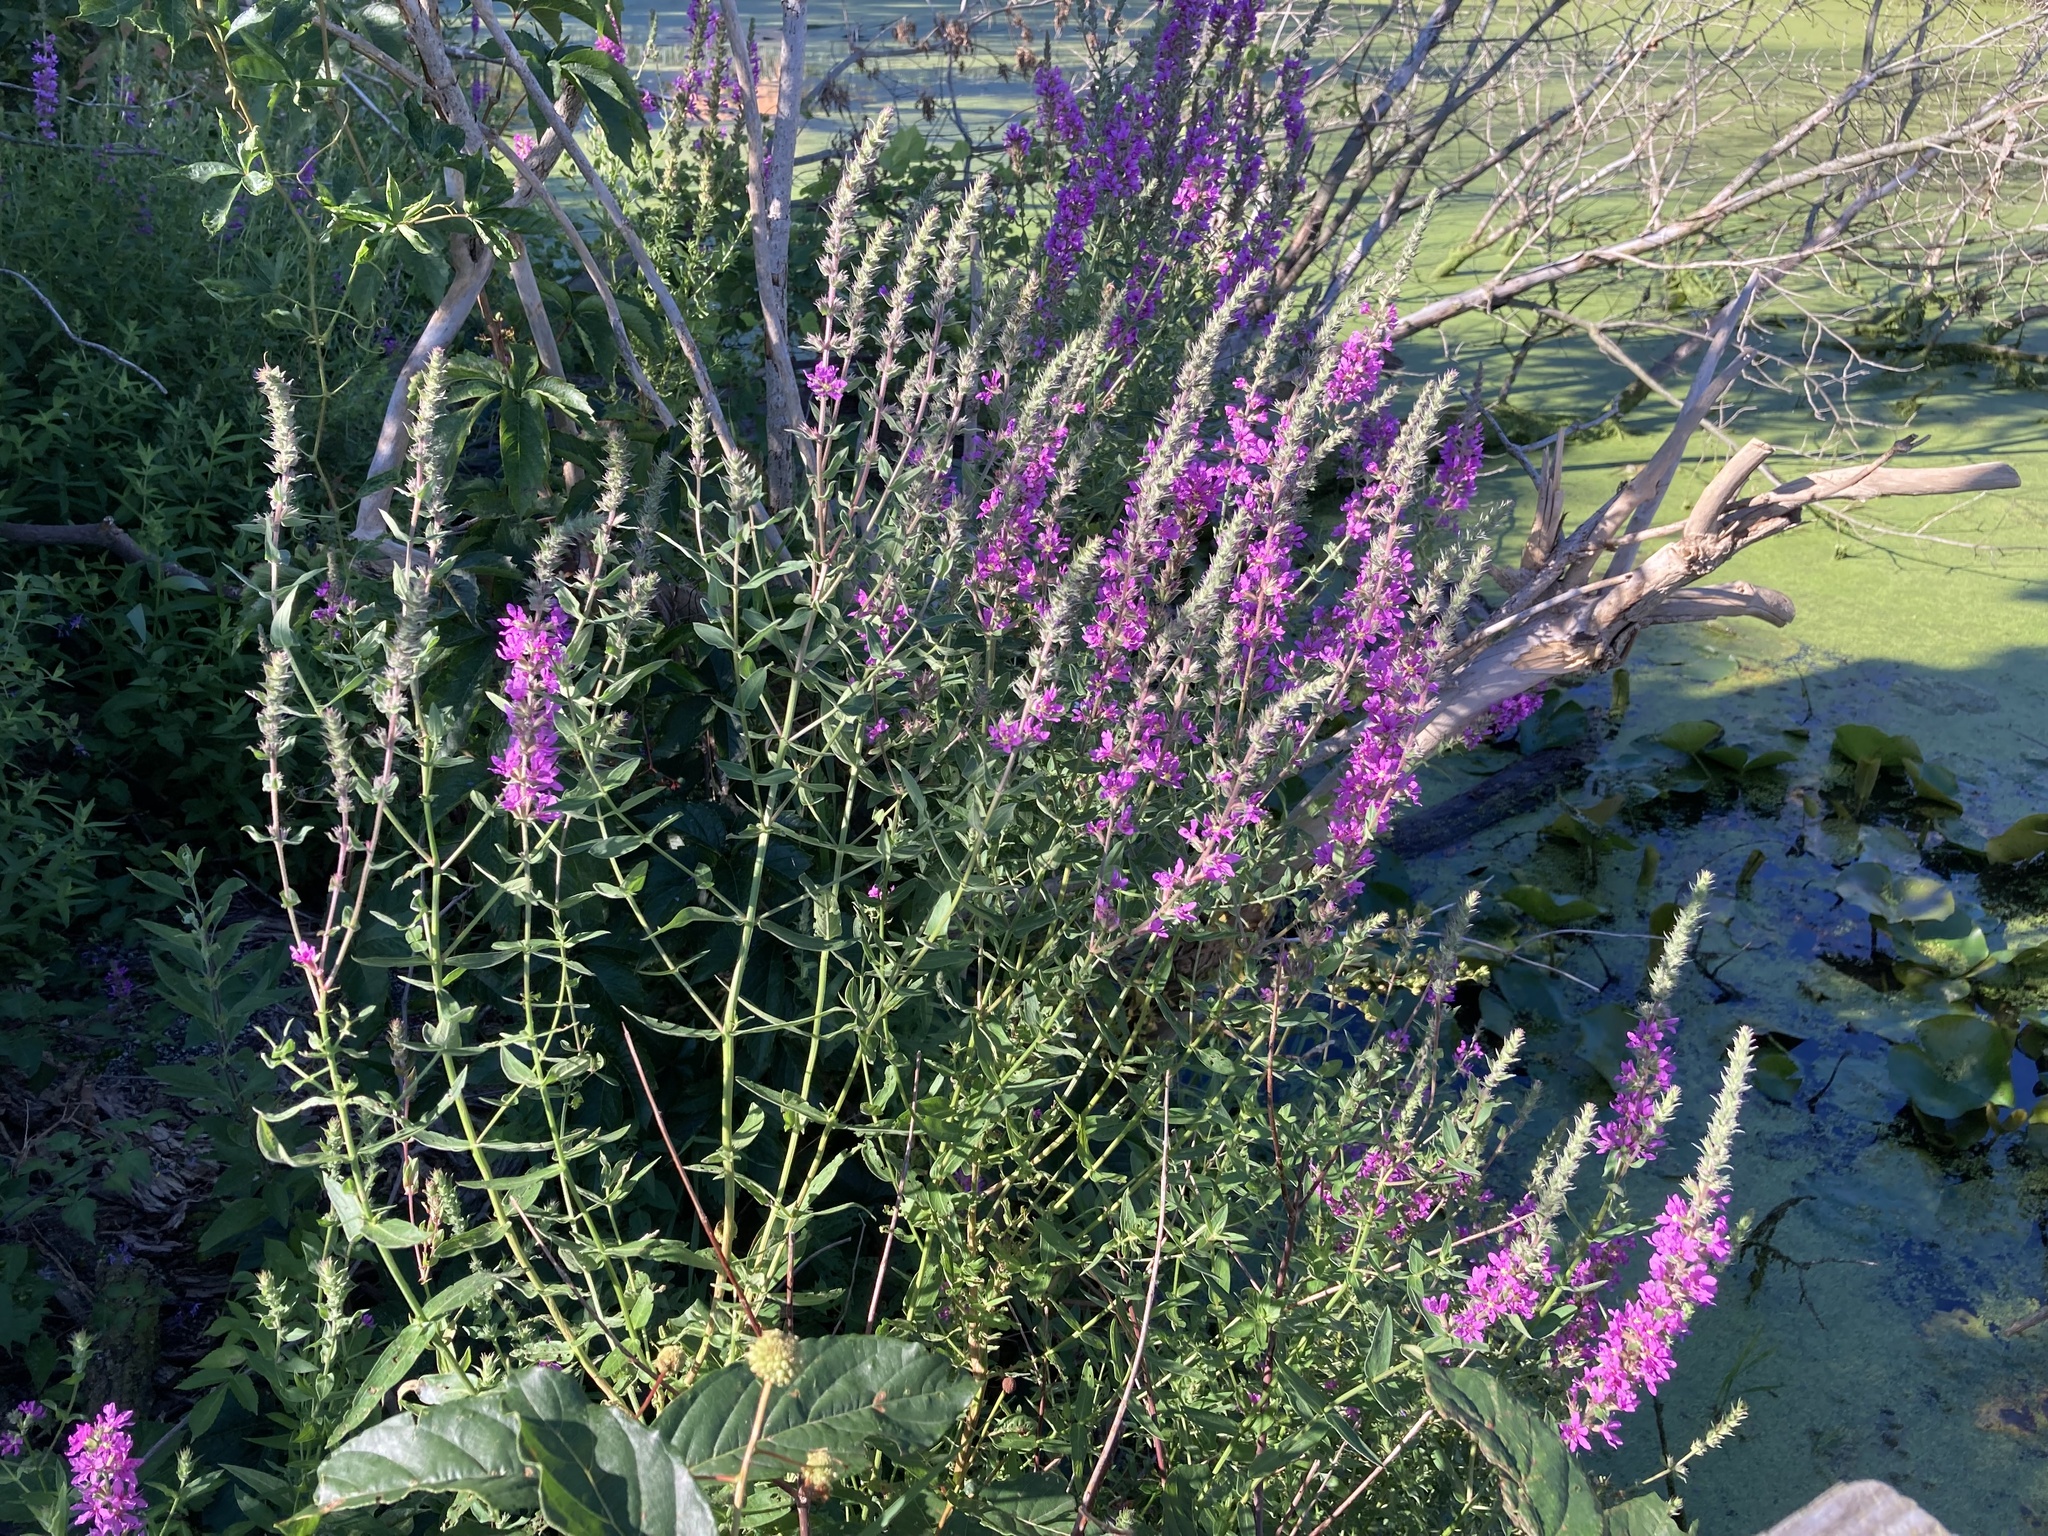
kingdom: Plantae
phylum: Tracheophyta
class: Magnoliopsida
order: Myrtales
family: Lythraceae
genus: Lythrum
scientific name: Lythrum salicaria
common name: Purple loosestrife
